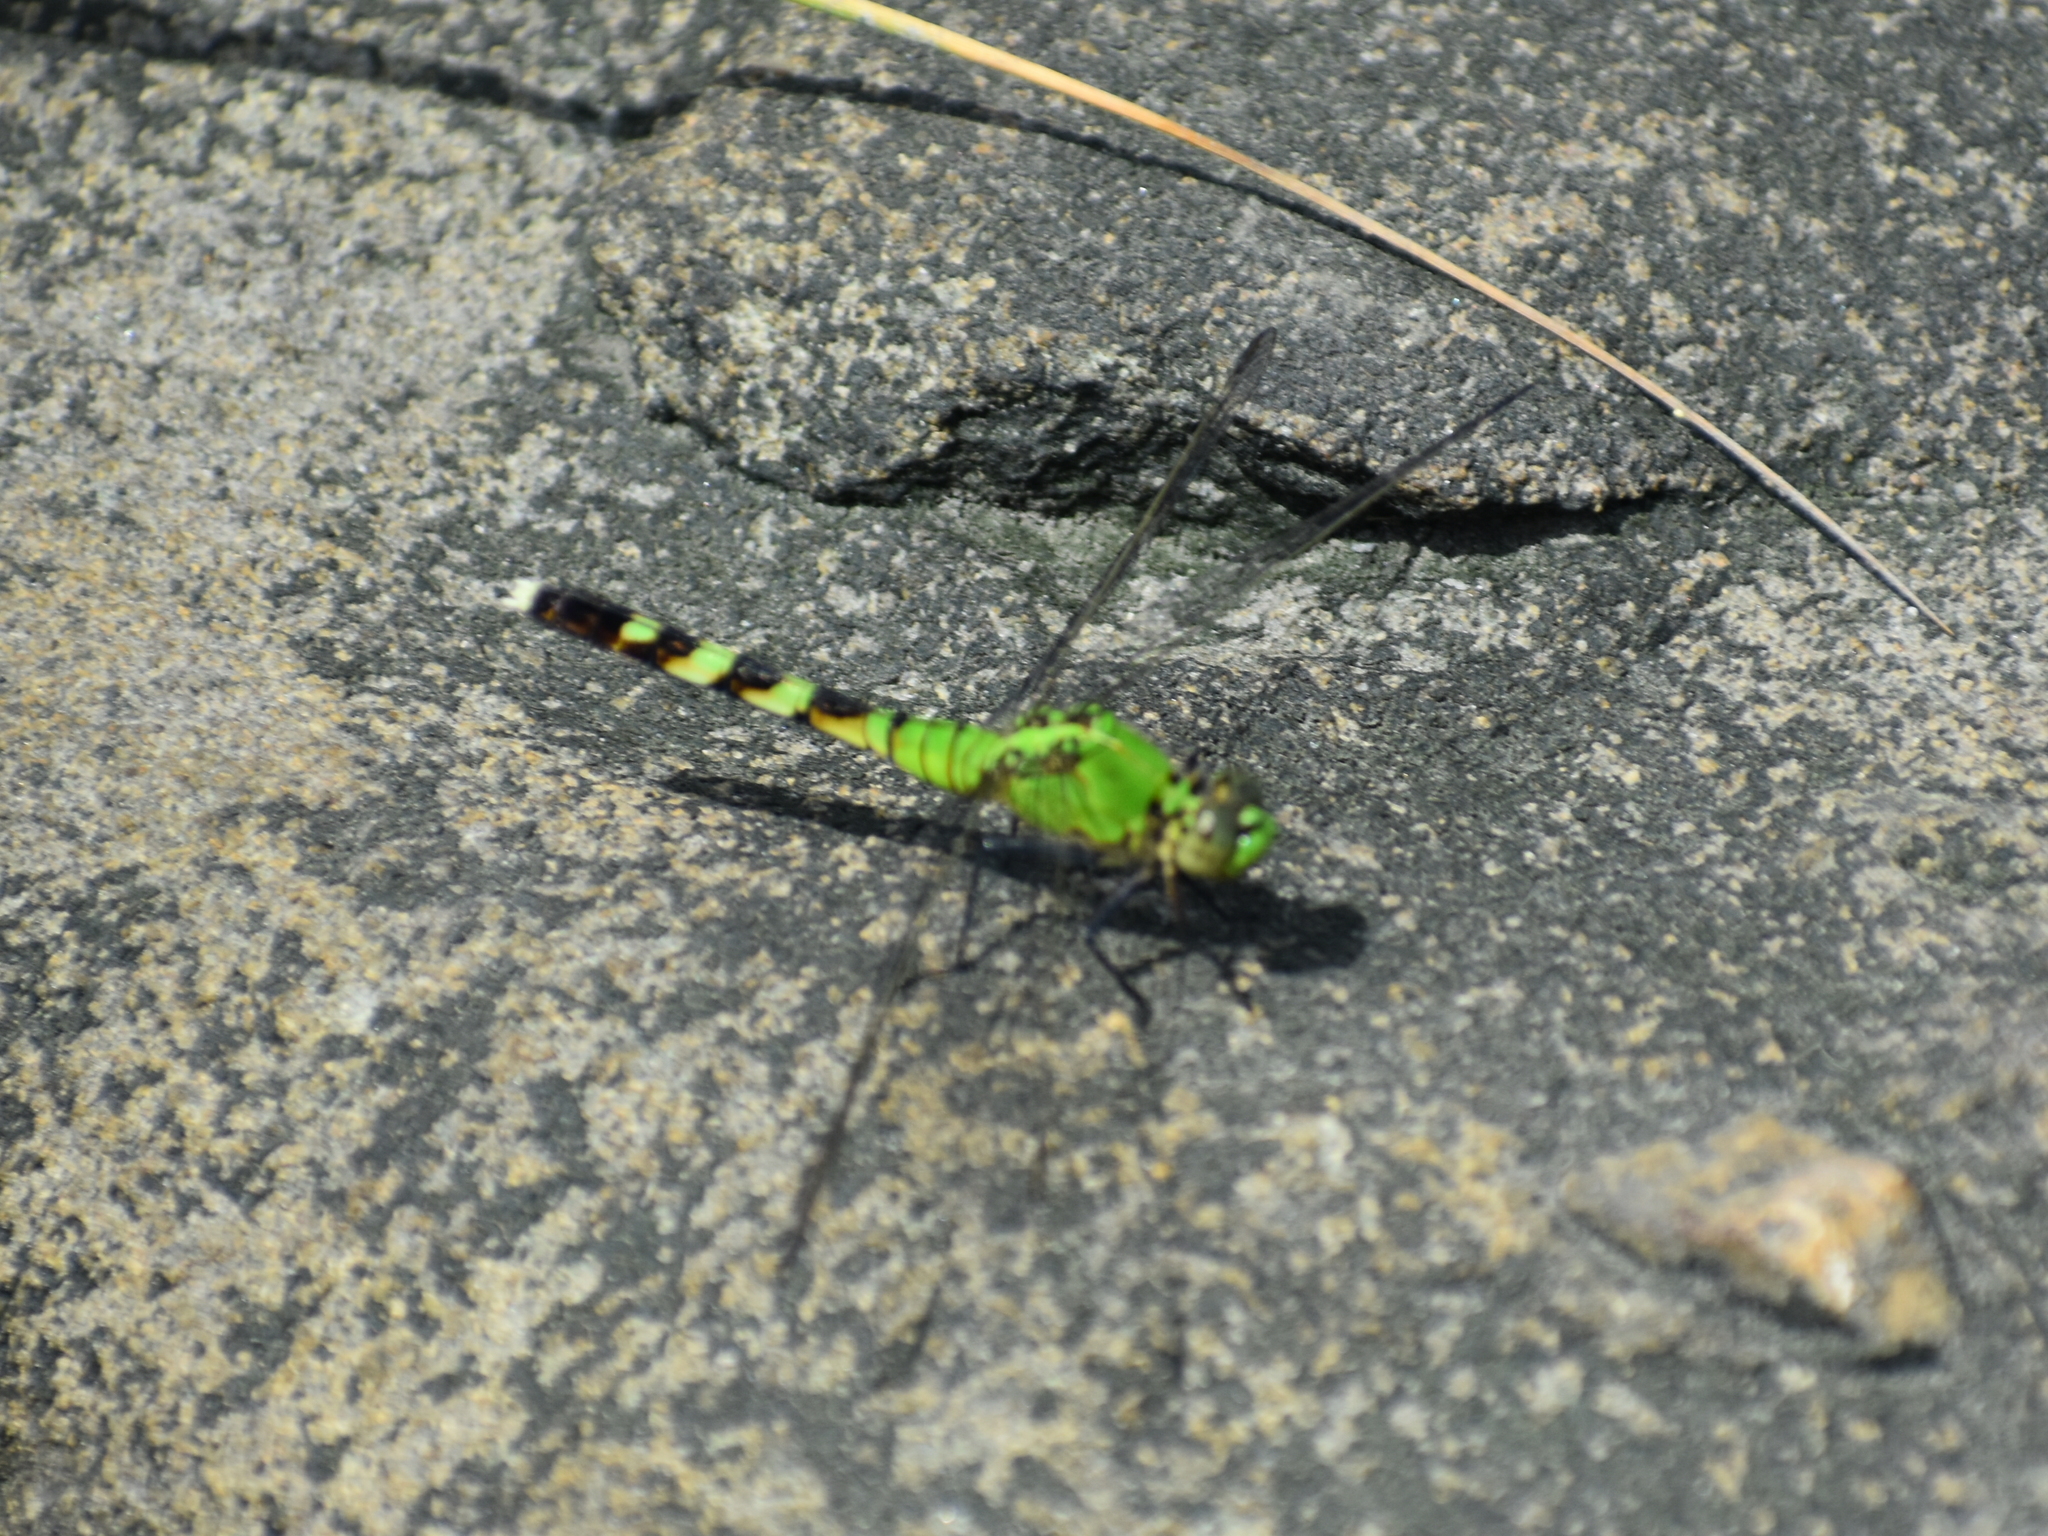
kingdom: Animalia
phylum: Arthropoda
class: Insecta
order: Odonata
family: Libellulidae
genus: Erythemis
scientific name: Erythemis simplicicollis
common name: Eastern pondhawk
